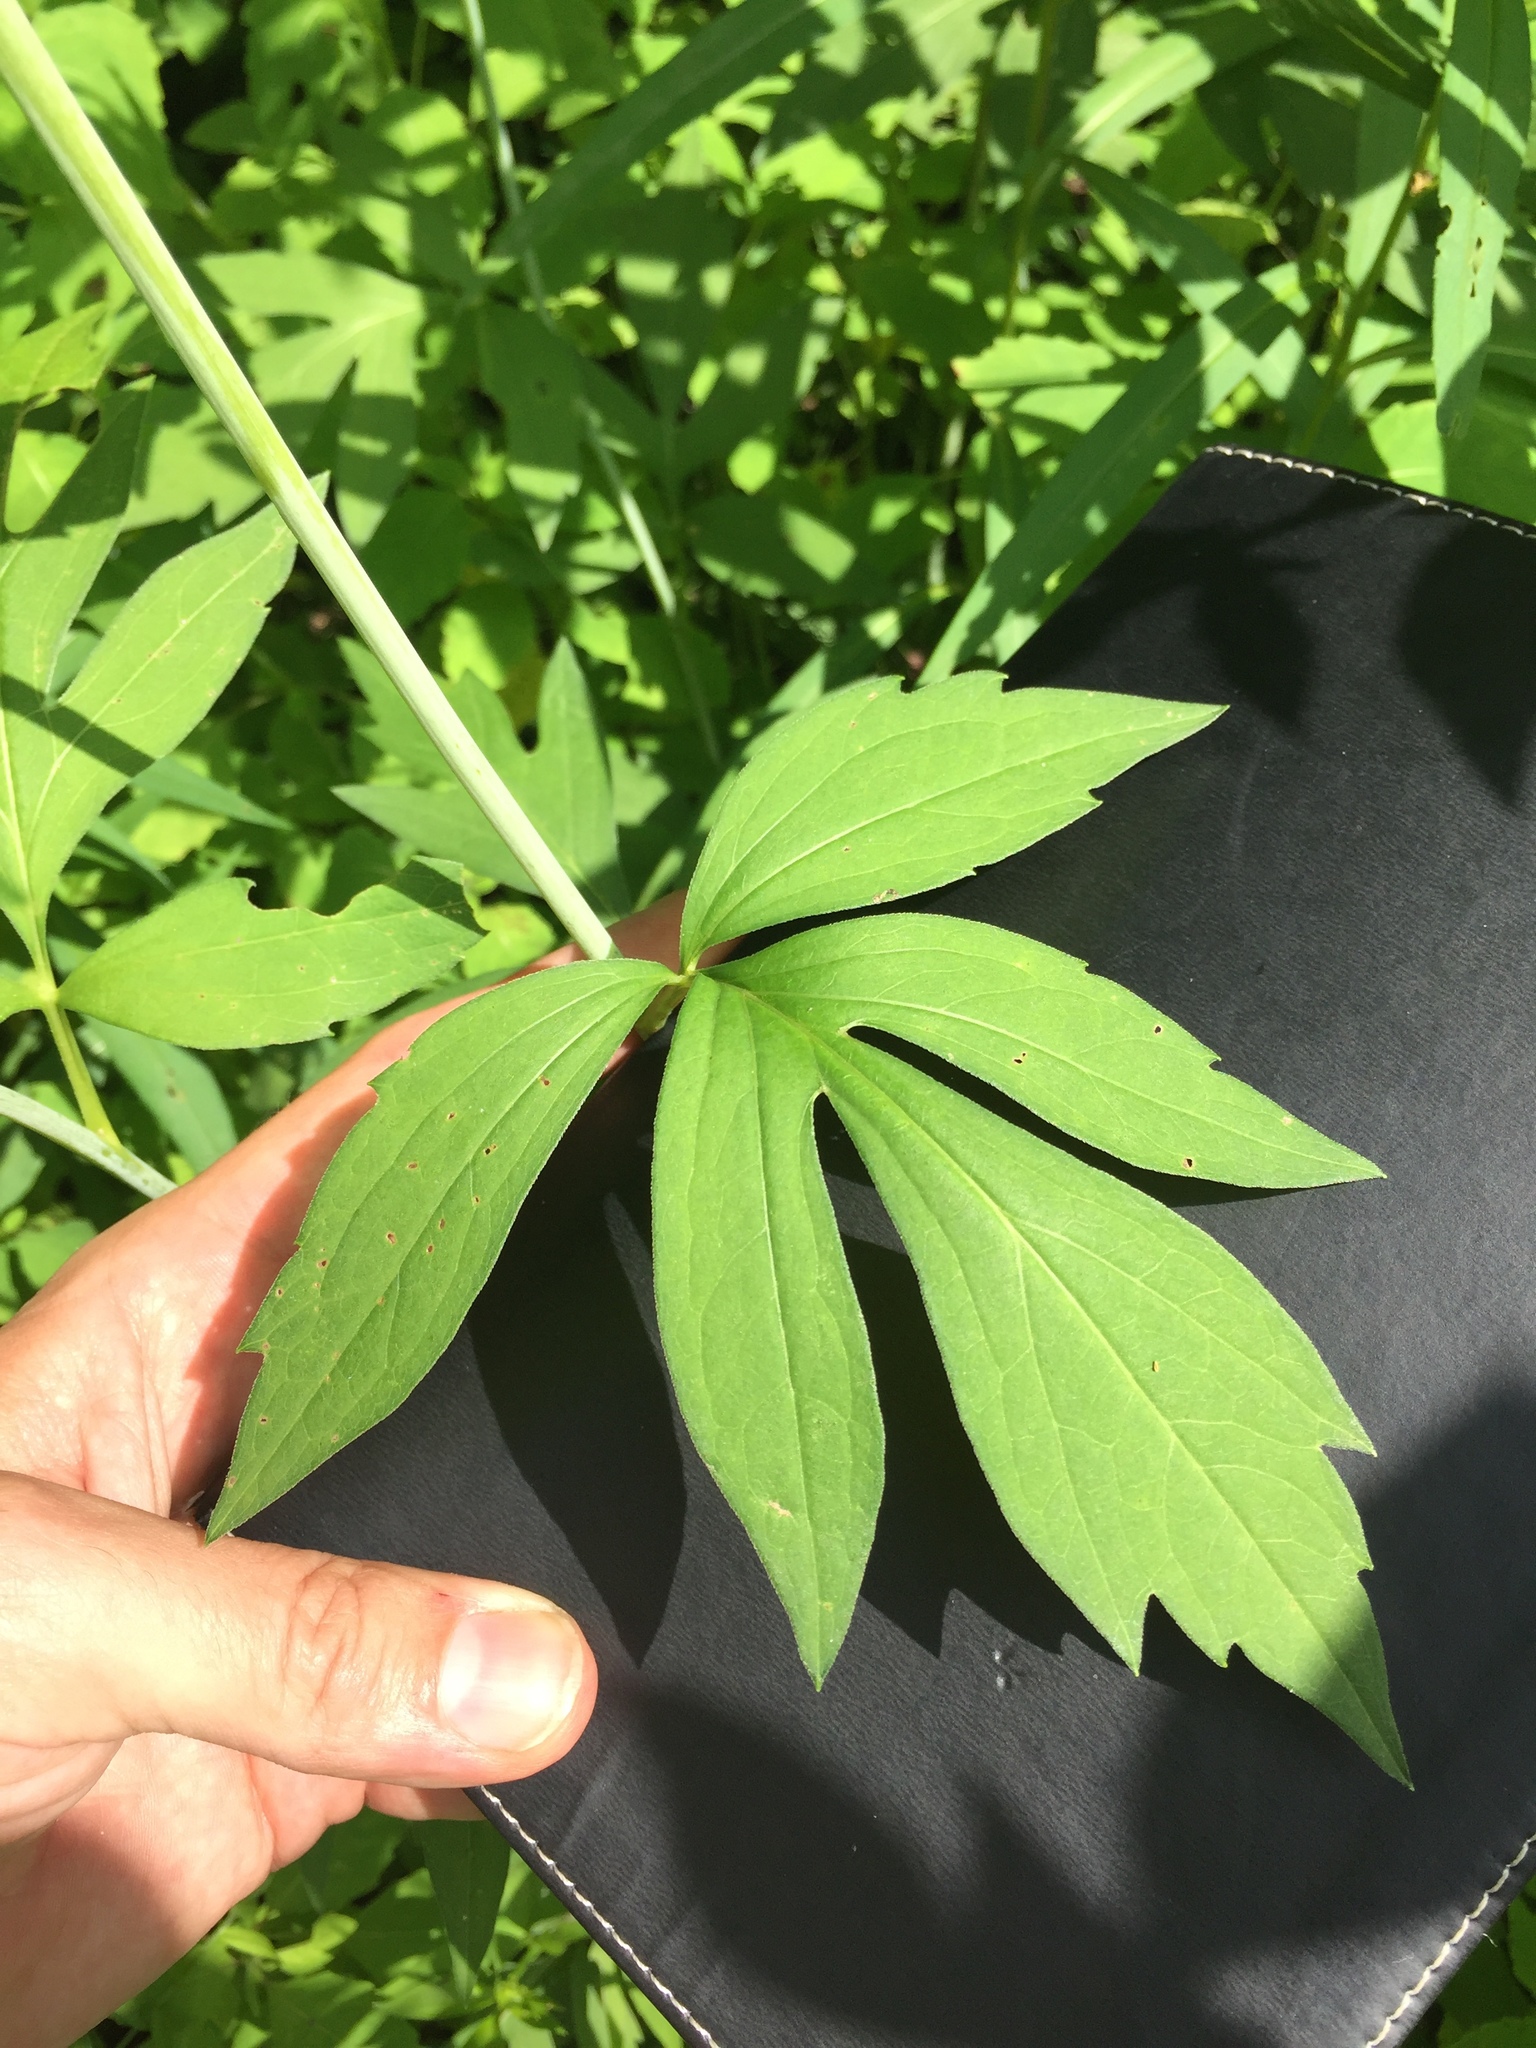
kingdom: Plantae
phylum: Tracheophyta
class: Magnoliopsida
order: Asterales
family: Asteraceae
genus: Rudbeckia
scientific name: Rudbeckia laciniata
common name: Coneflower
